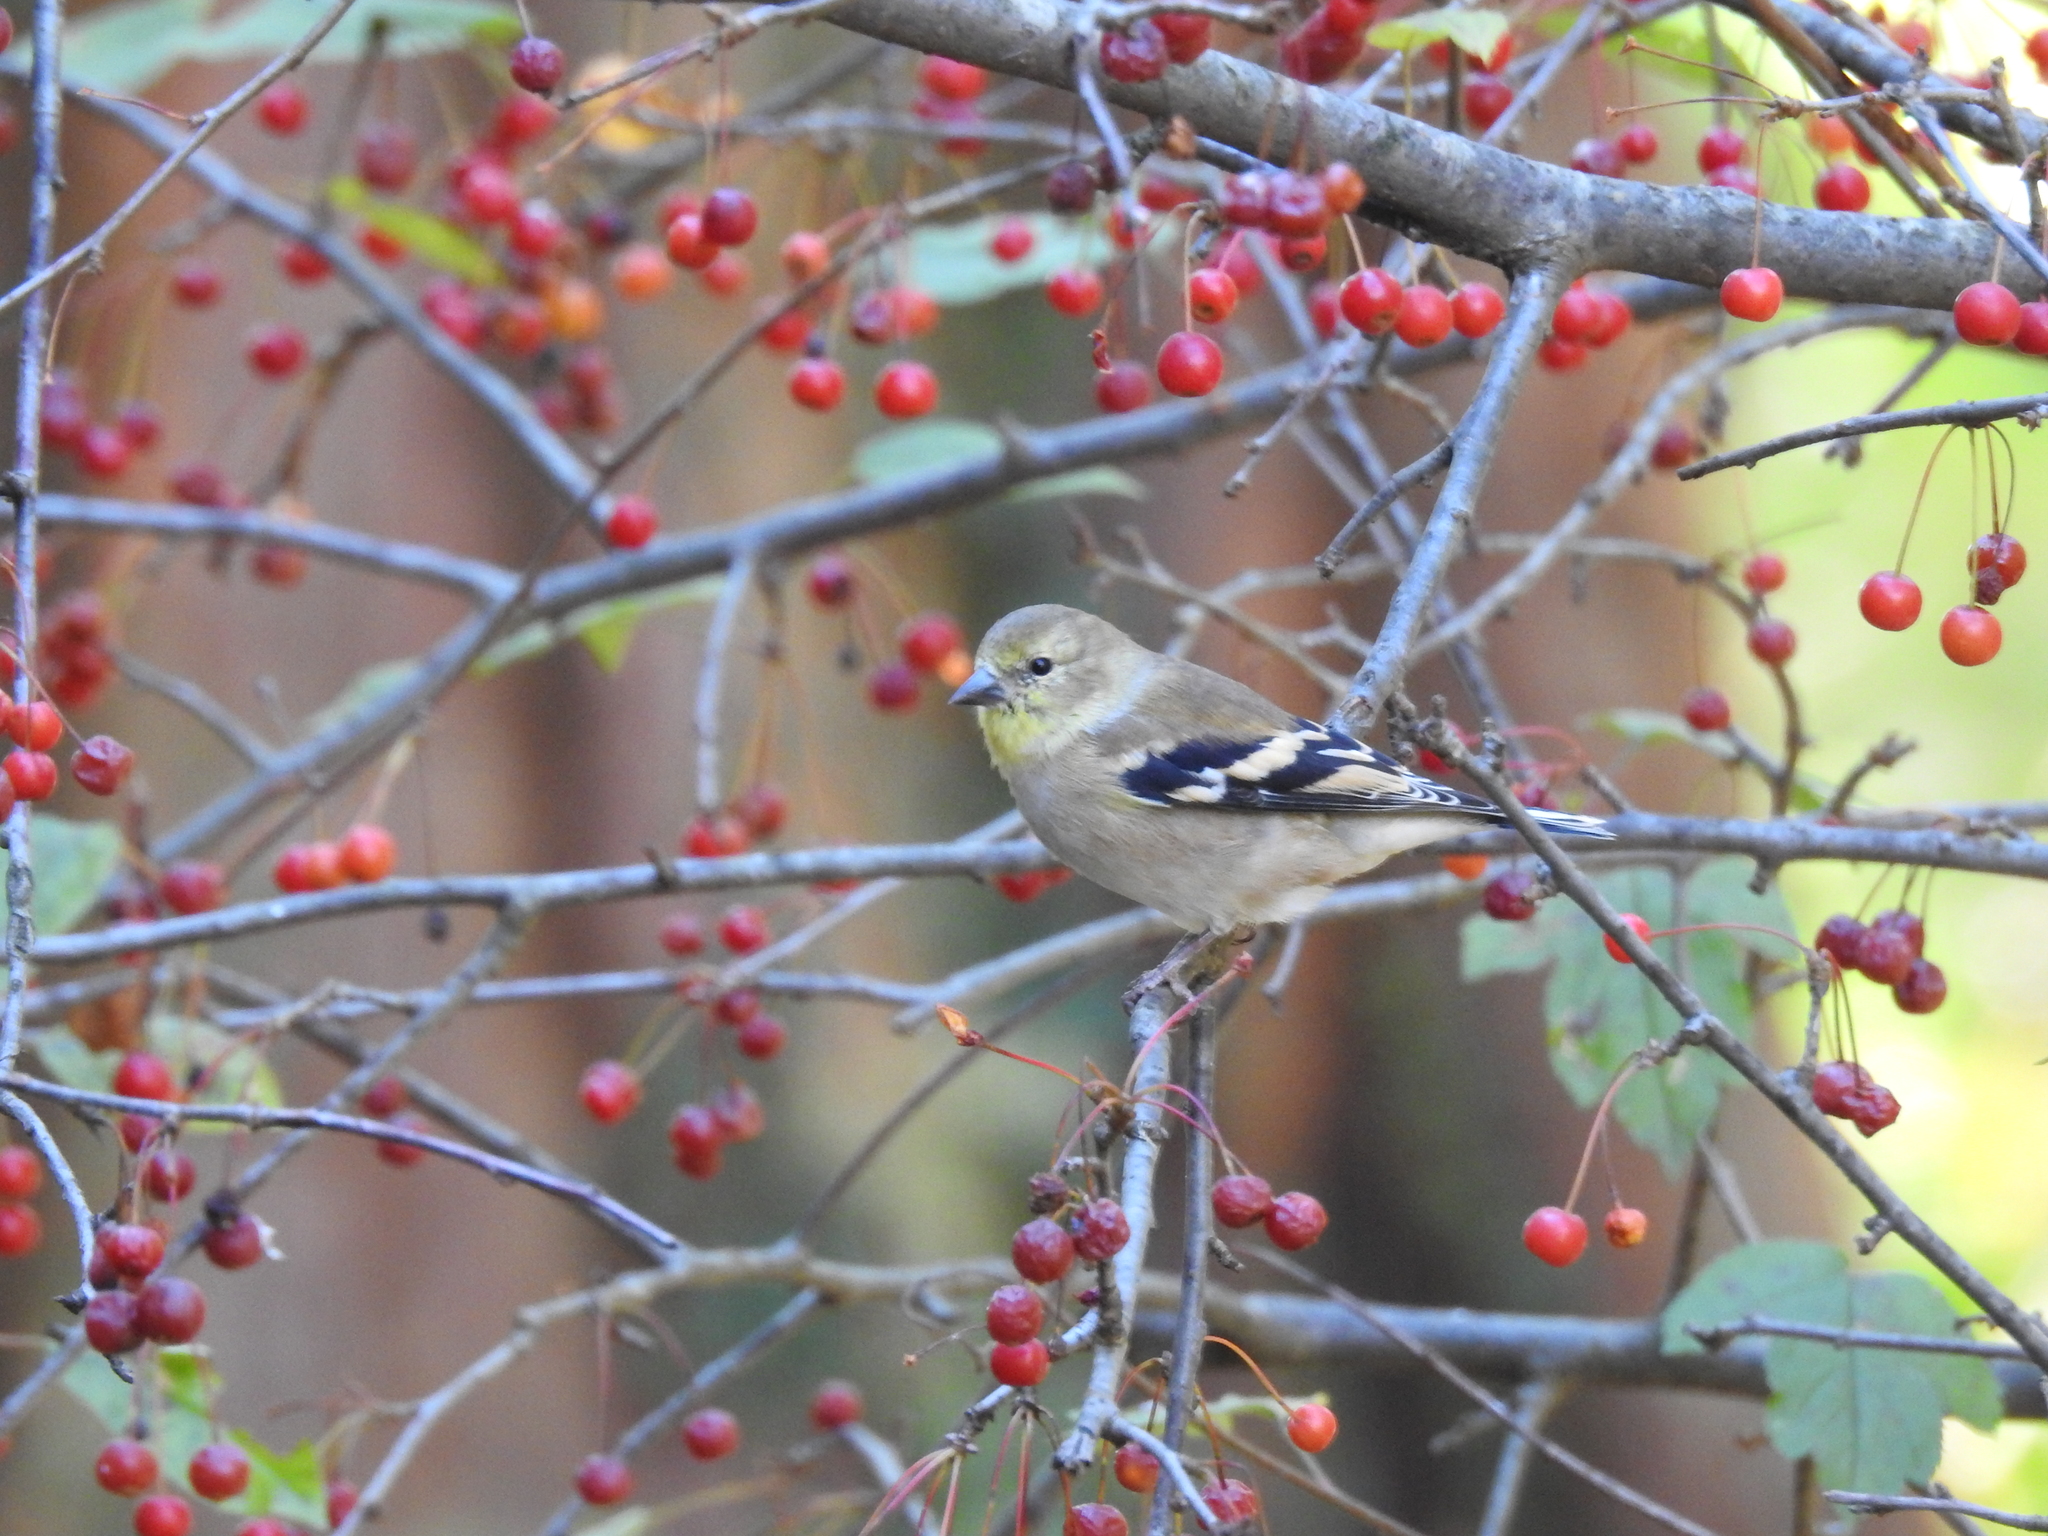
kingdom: Animalia
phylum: Chordata
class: Aves
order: Passeriformes
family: Fringillidae
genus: Spinus
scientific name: Spinus tristis
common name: American goldfinch
